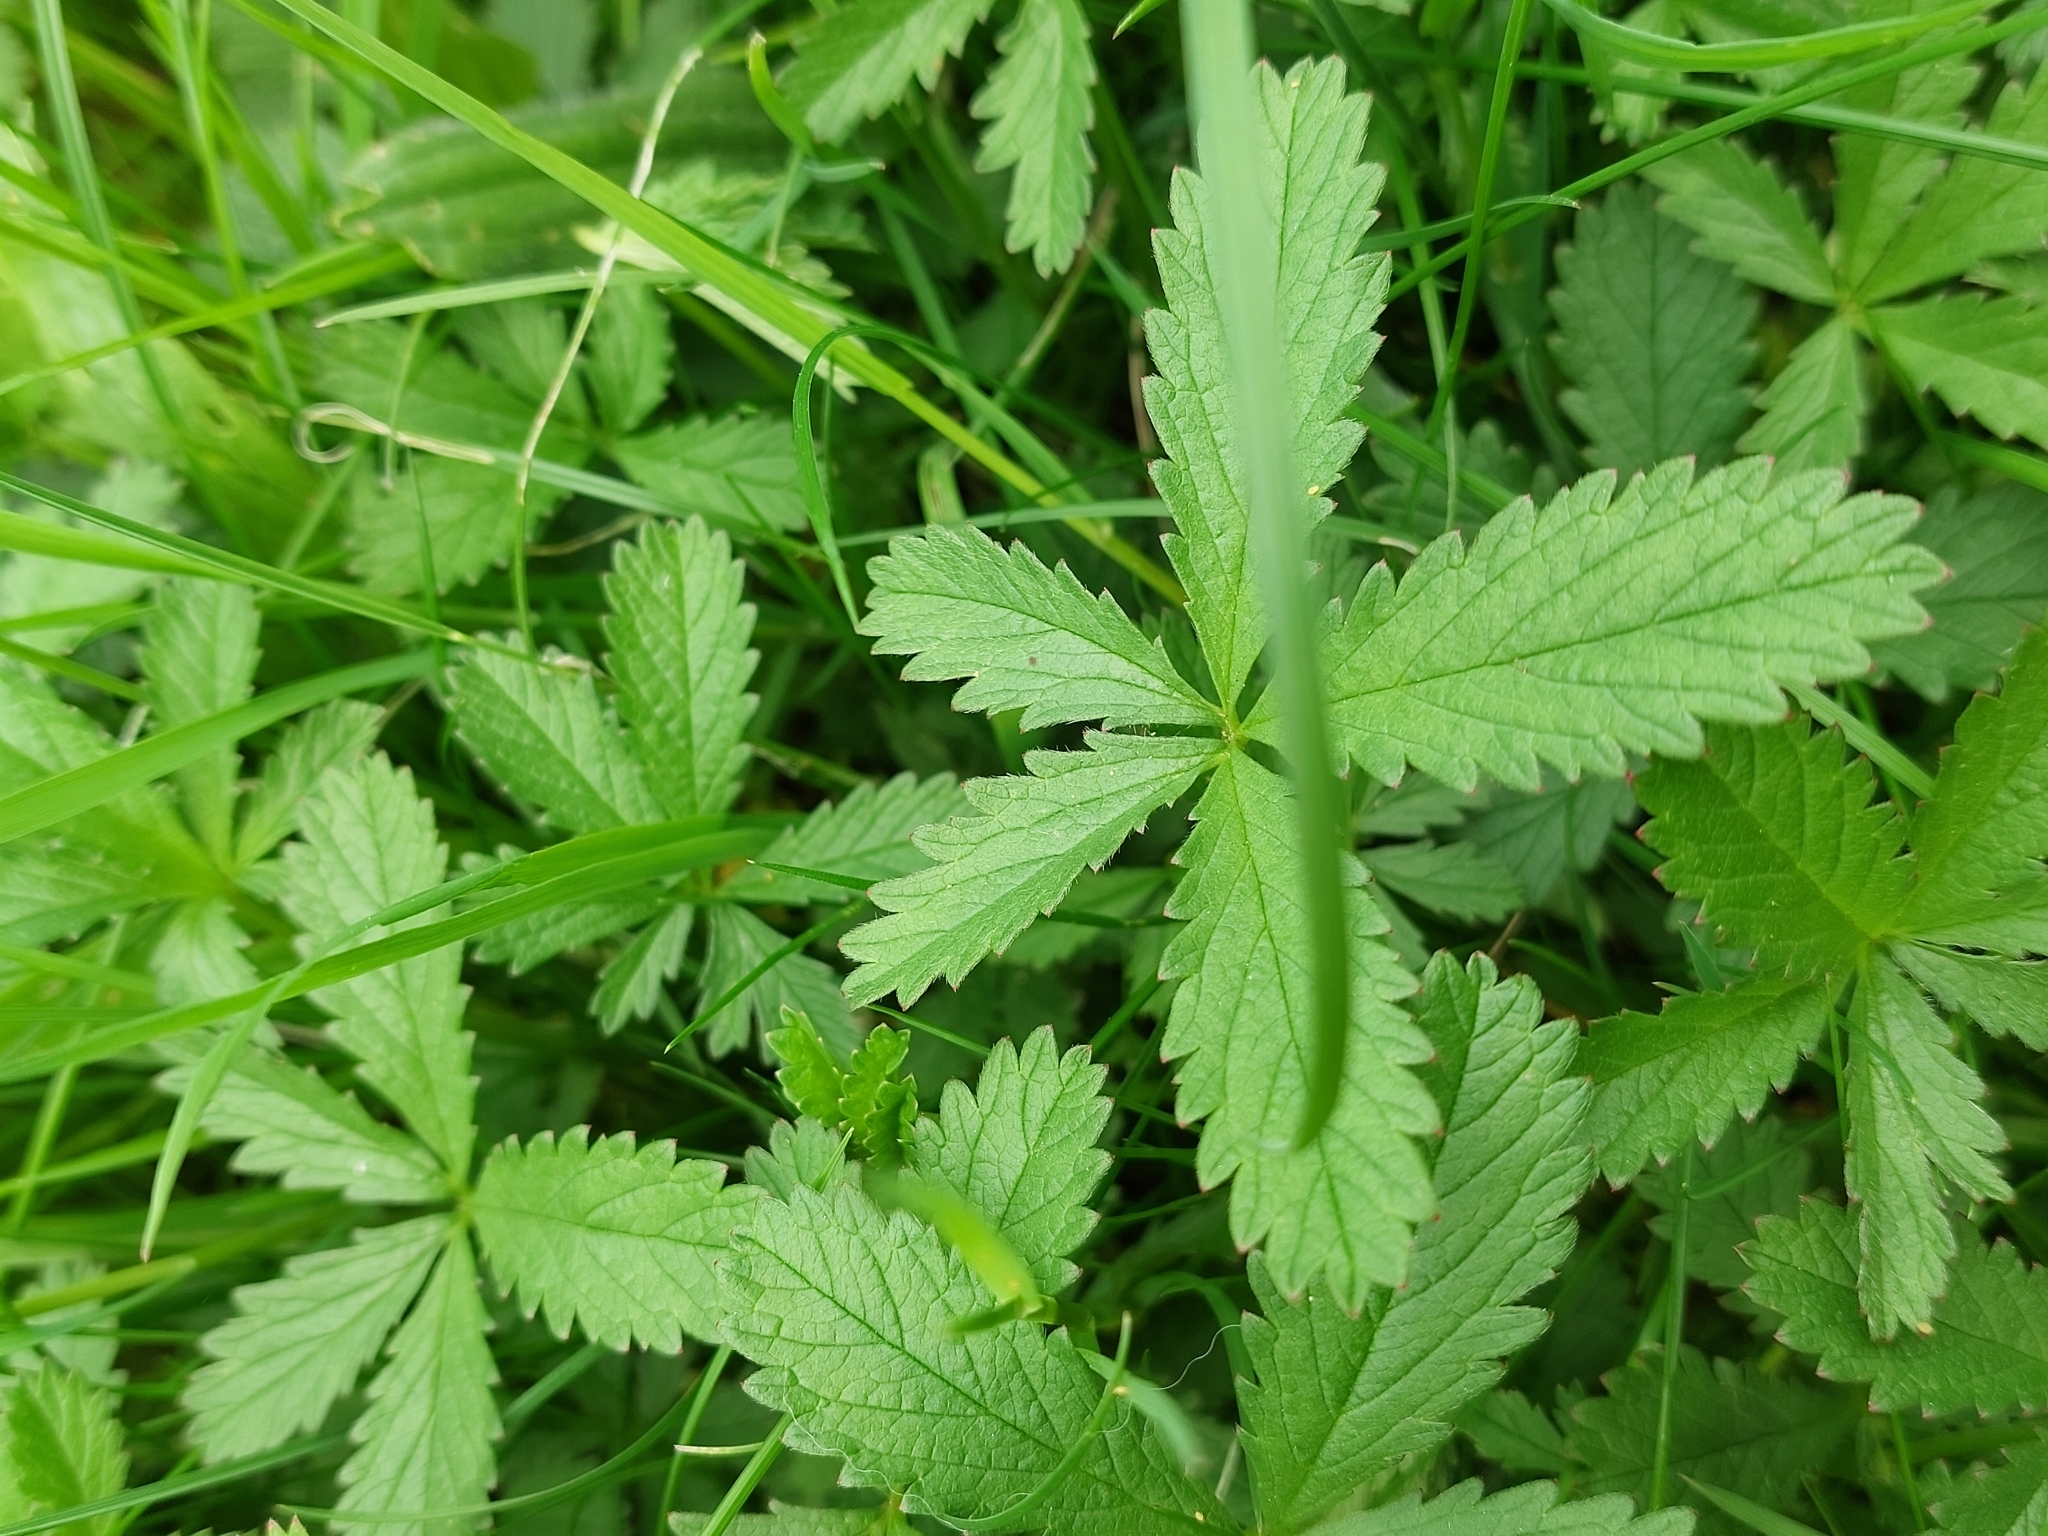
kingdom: Plantae
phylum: Tracheophyta
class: Magnoliopsida
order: Rosales
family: Rosaceae
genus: Potentilla
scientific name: Potentilla reptans
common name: Creeping cinquefoil
